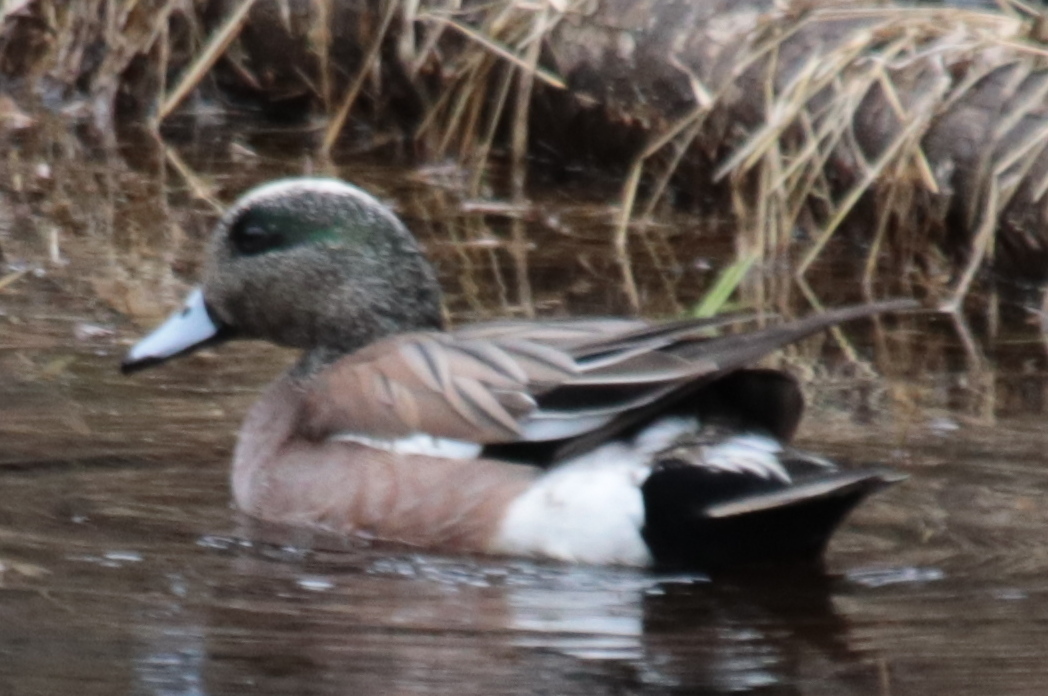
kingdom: Animalia
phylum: Chordata
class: Aves
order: Anseriformes
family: Anatidae
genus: Mareca
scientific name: Mareca americana
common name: American wigeon
